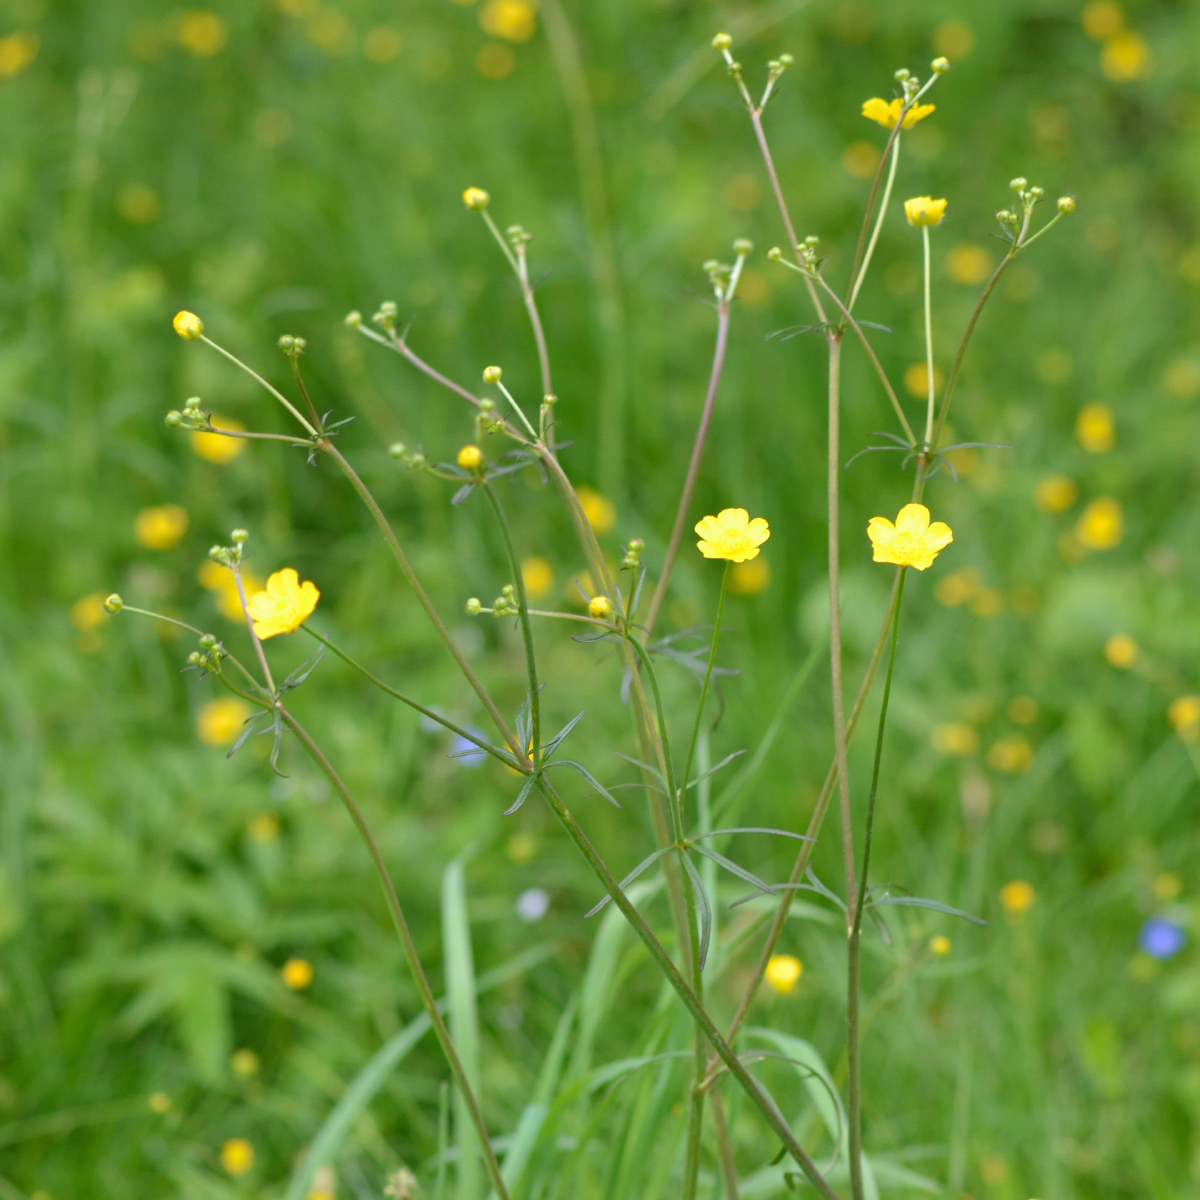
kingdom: Plantae
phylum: Tracheophyta
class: Magnoliopsida
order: Ranunculales
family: Ranunculaceae
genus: Ranunculus
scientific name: Ranunculus acris
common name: Meadow buttercup
